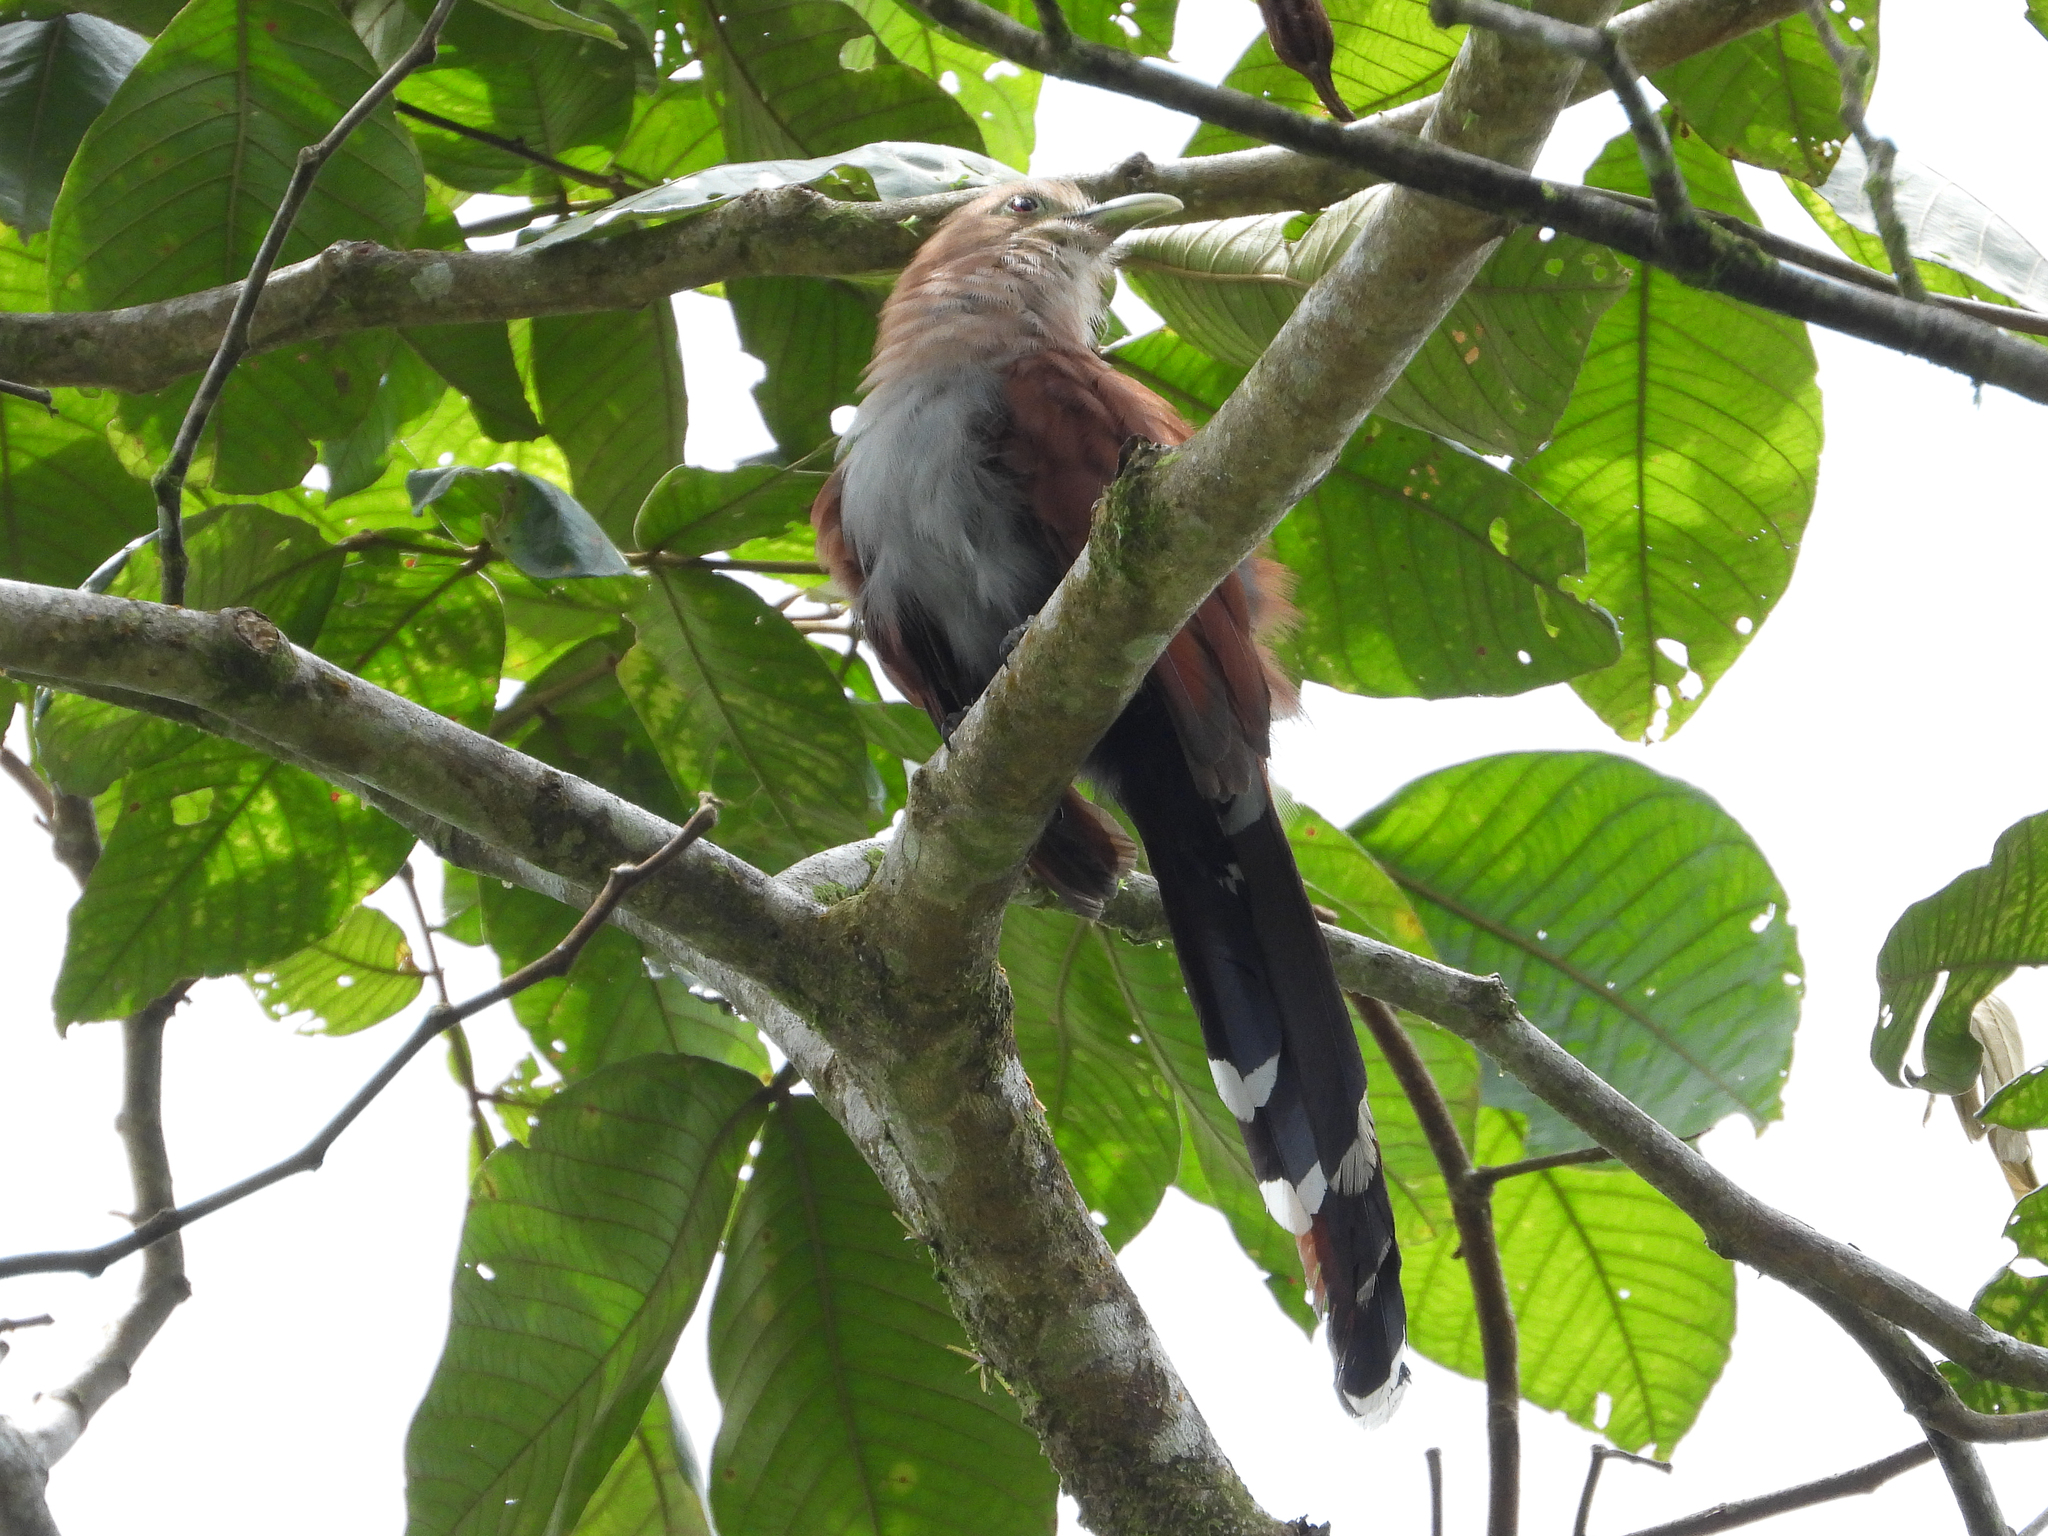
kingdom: Animalia
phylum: Chordata
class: Aves
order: Cuculiformes
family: Cuculidae
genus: Piaya
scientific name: Piaya cayana
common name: Squirrel cuckoo
